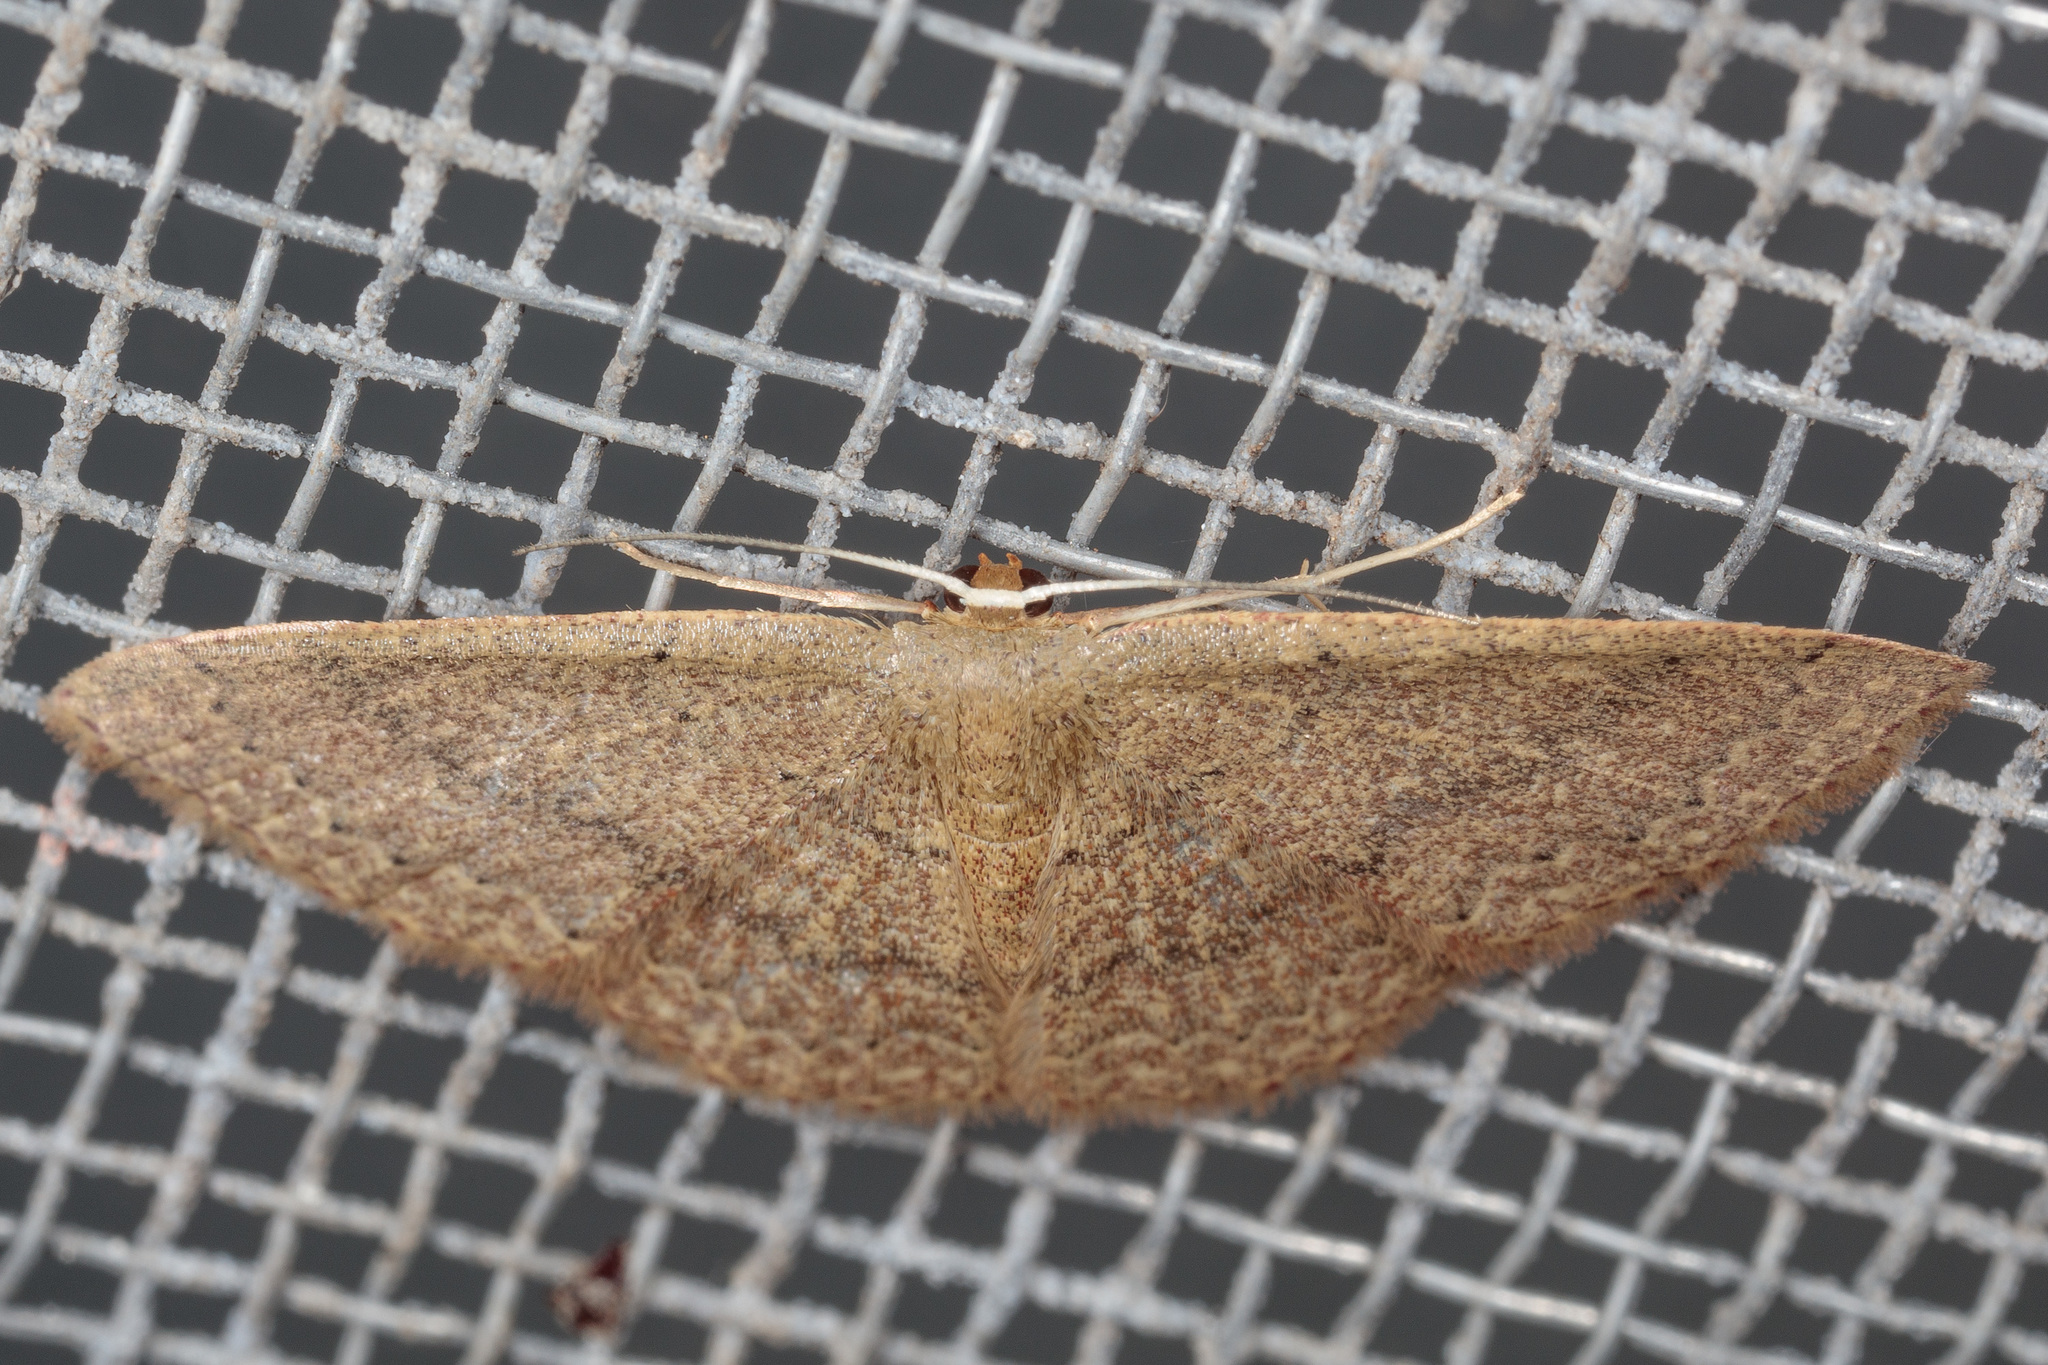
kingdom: Animalia
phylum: Arthropoda
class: Insecta
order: Lepidoptera
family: Geometridae
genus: Pleuroprucha
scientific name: Pleuroprucha insulsaria
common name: Common tan wave
